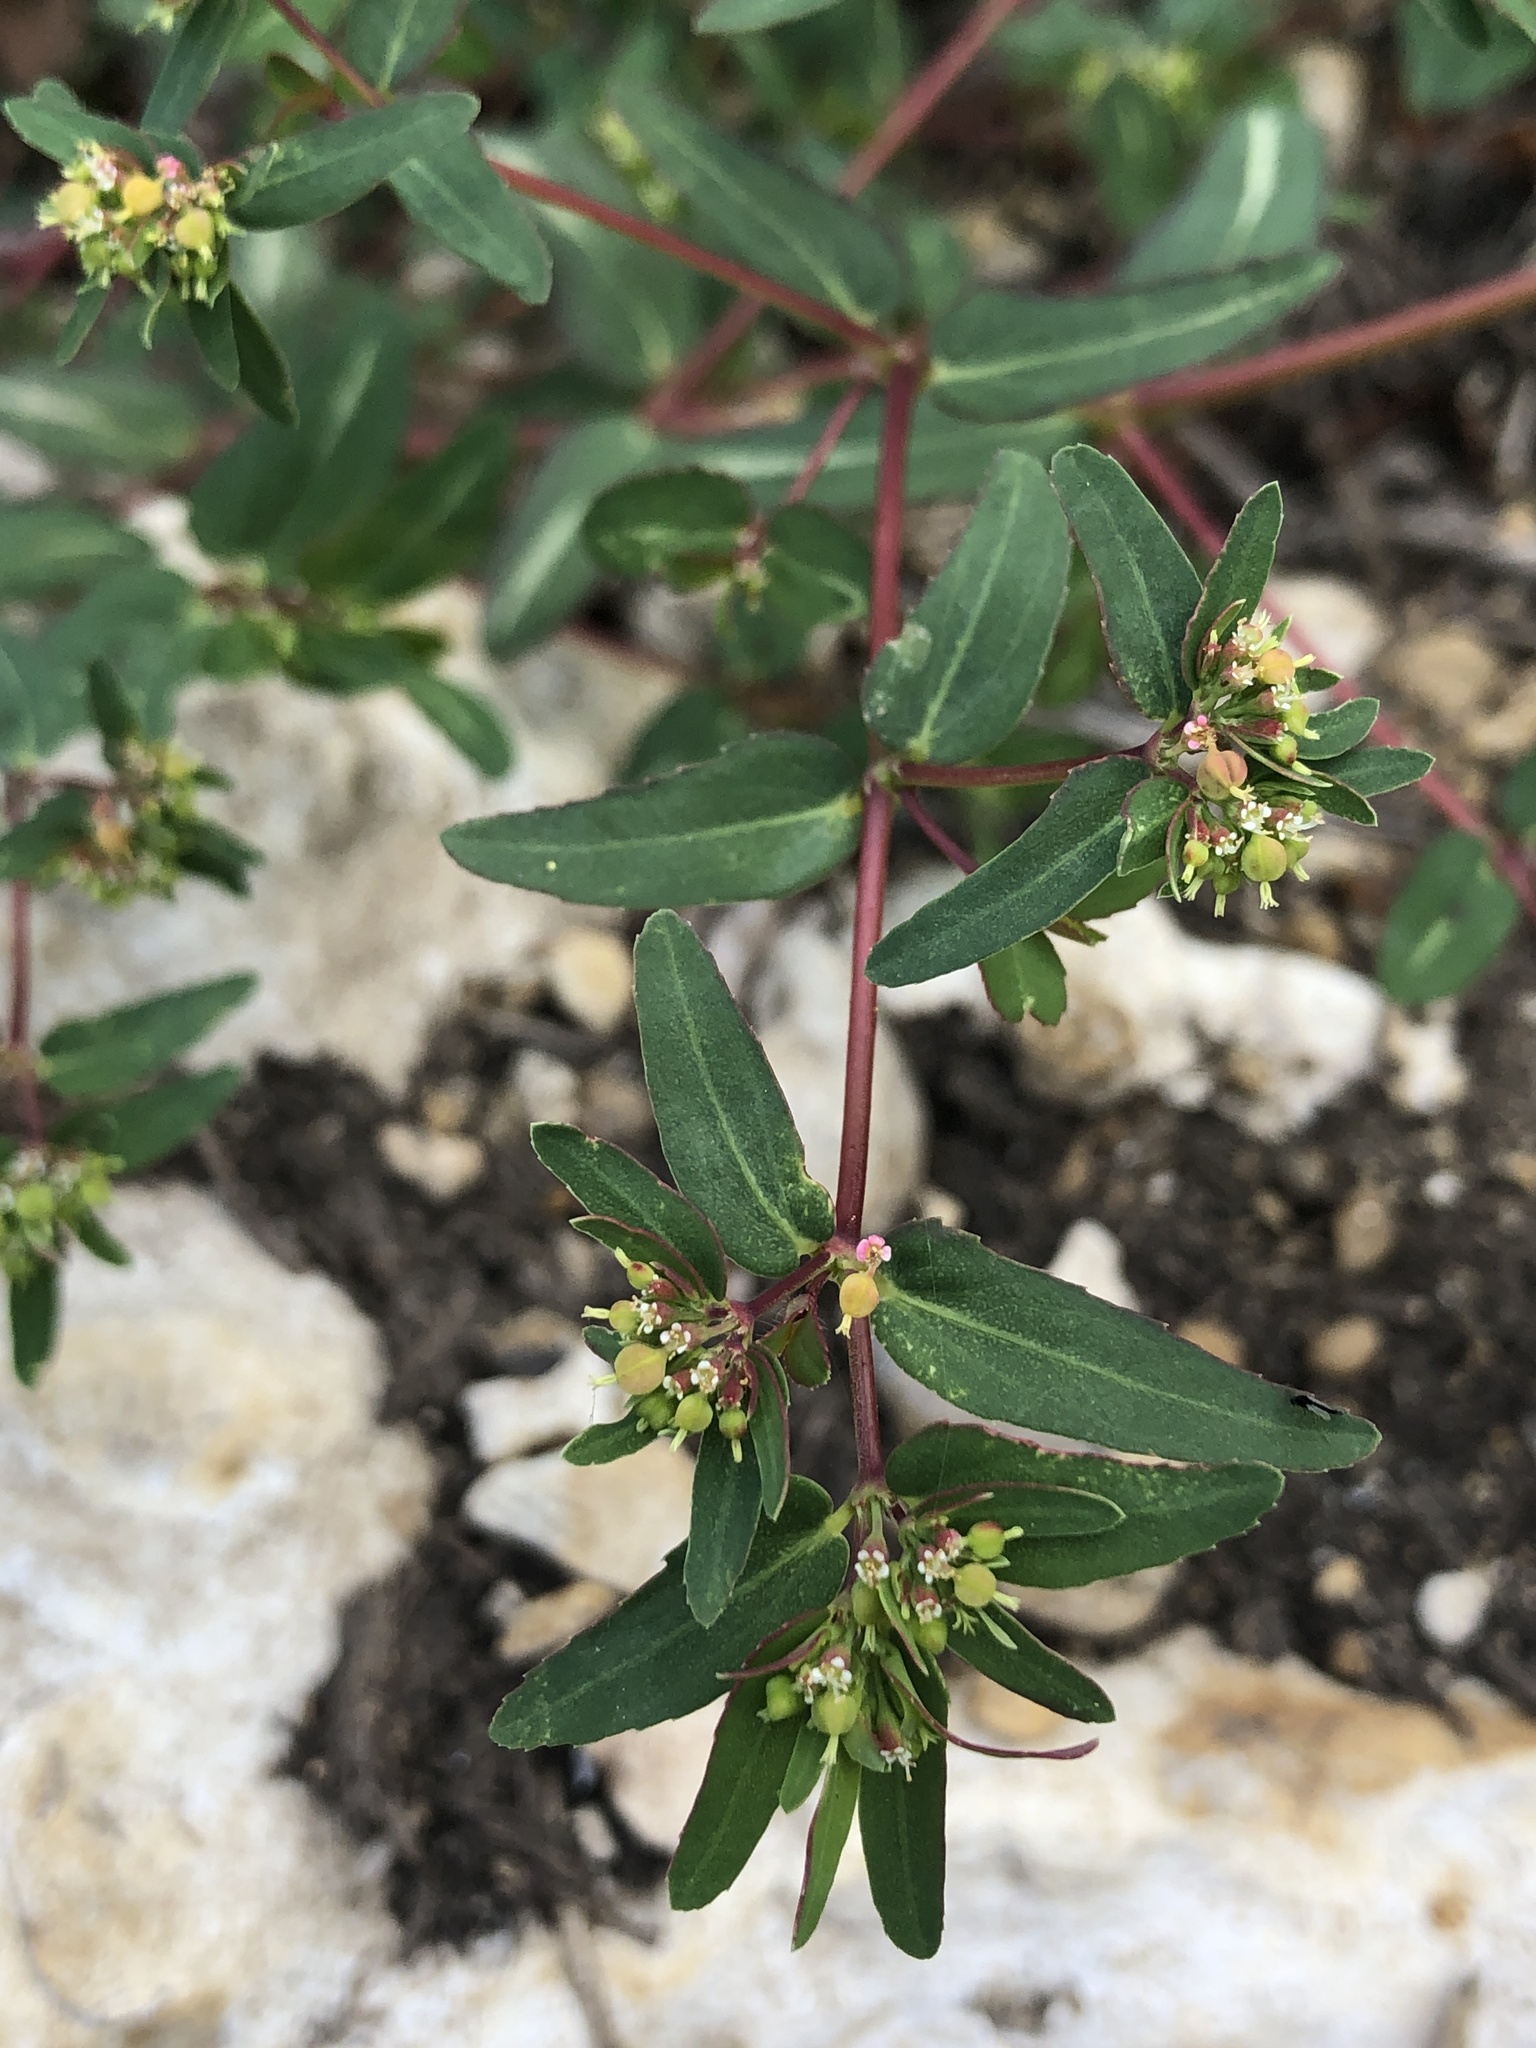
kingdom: Plantae
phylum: Tracheophyta
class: Magnoliopsida
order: Malpighiales
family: Euphorbiaceae
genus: Euphorbia
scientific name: Euphorbia nutans
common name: Eyebane
